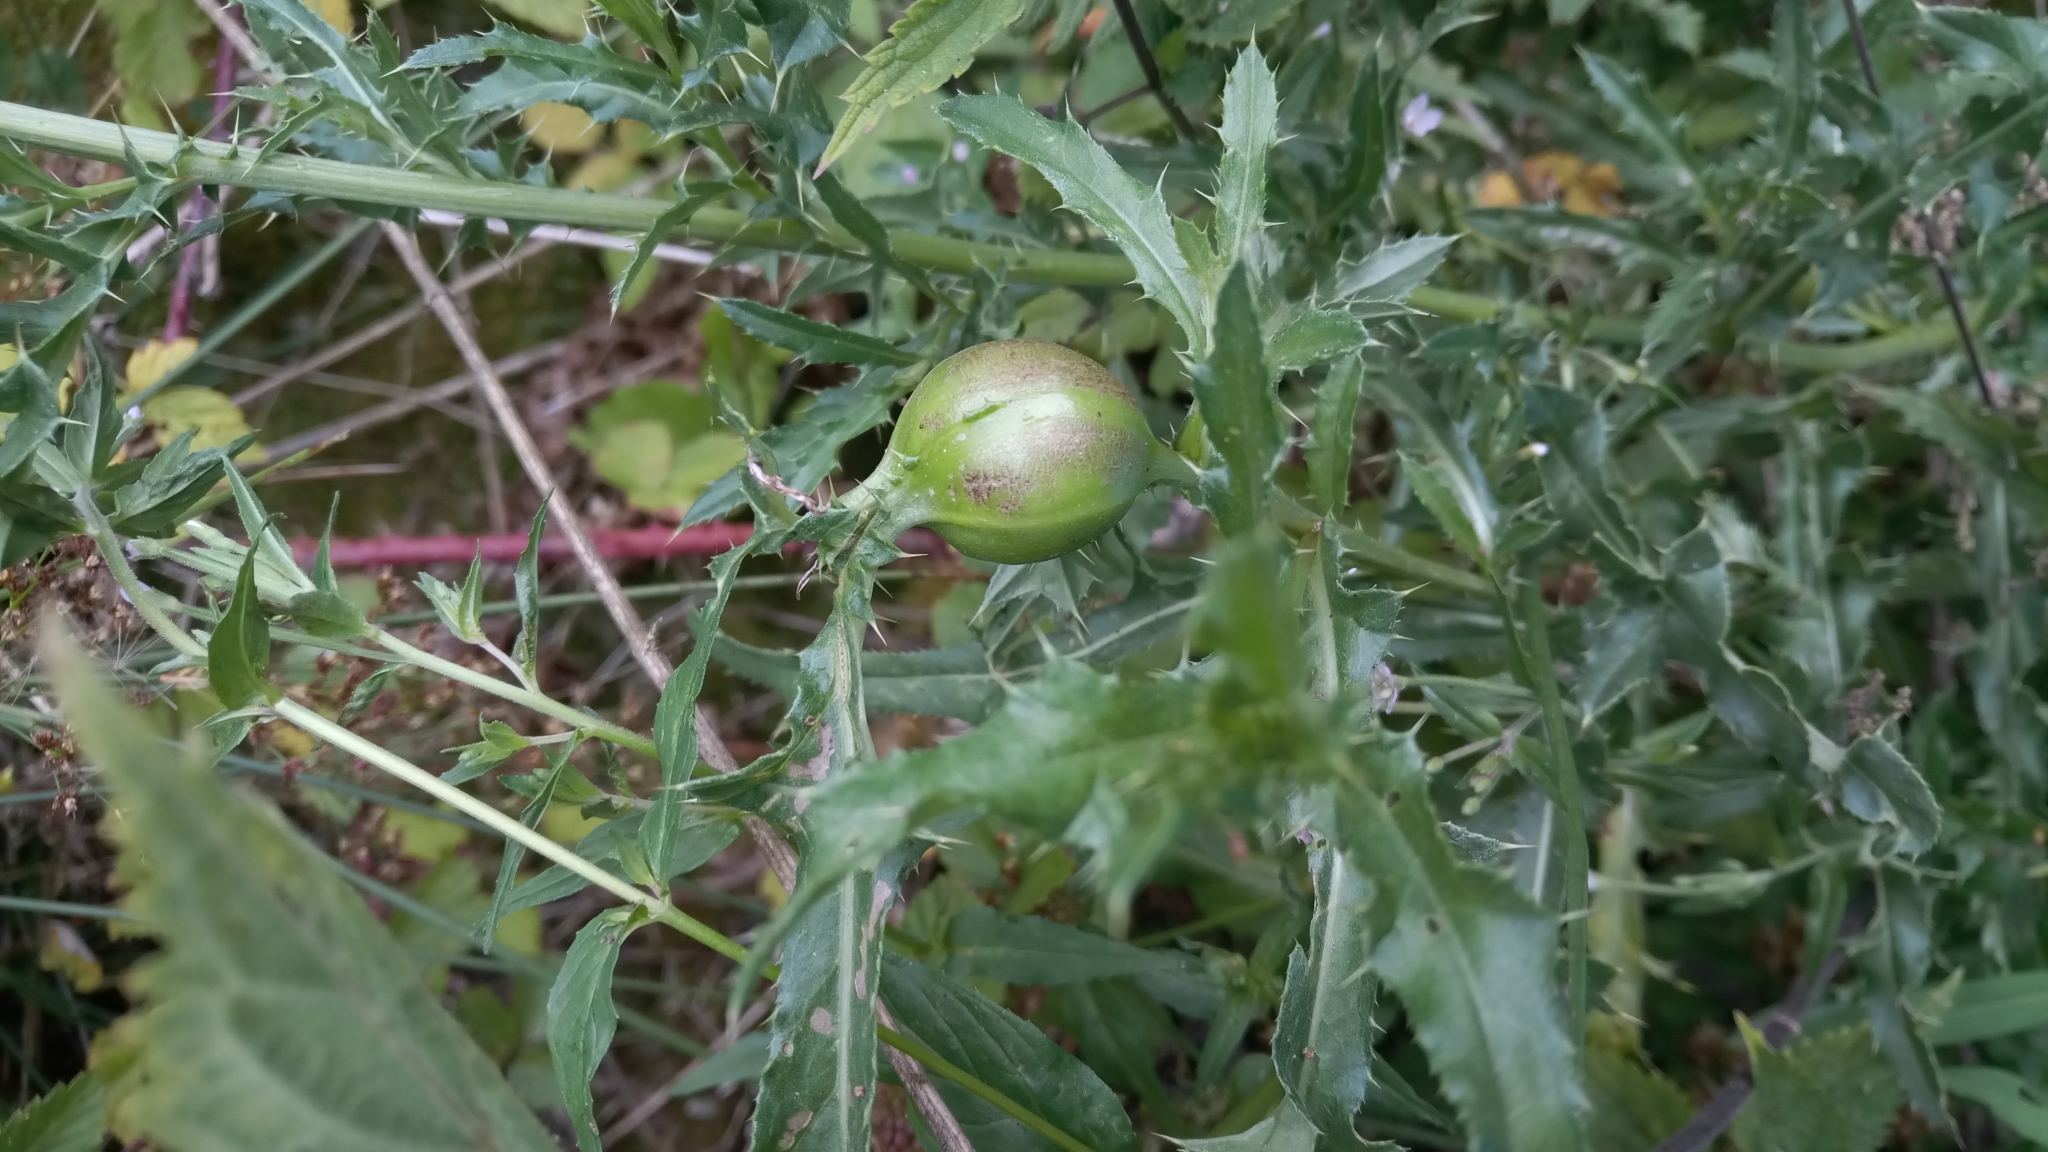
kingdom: Animalia
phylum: Arthropoda
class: Insecta
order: Diptera
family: Tephritidae
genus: Urophora
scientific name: Urophora cardui
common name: Fruit fly
